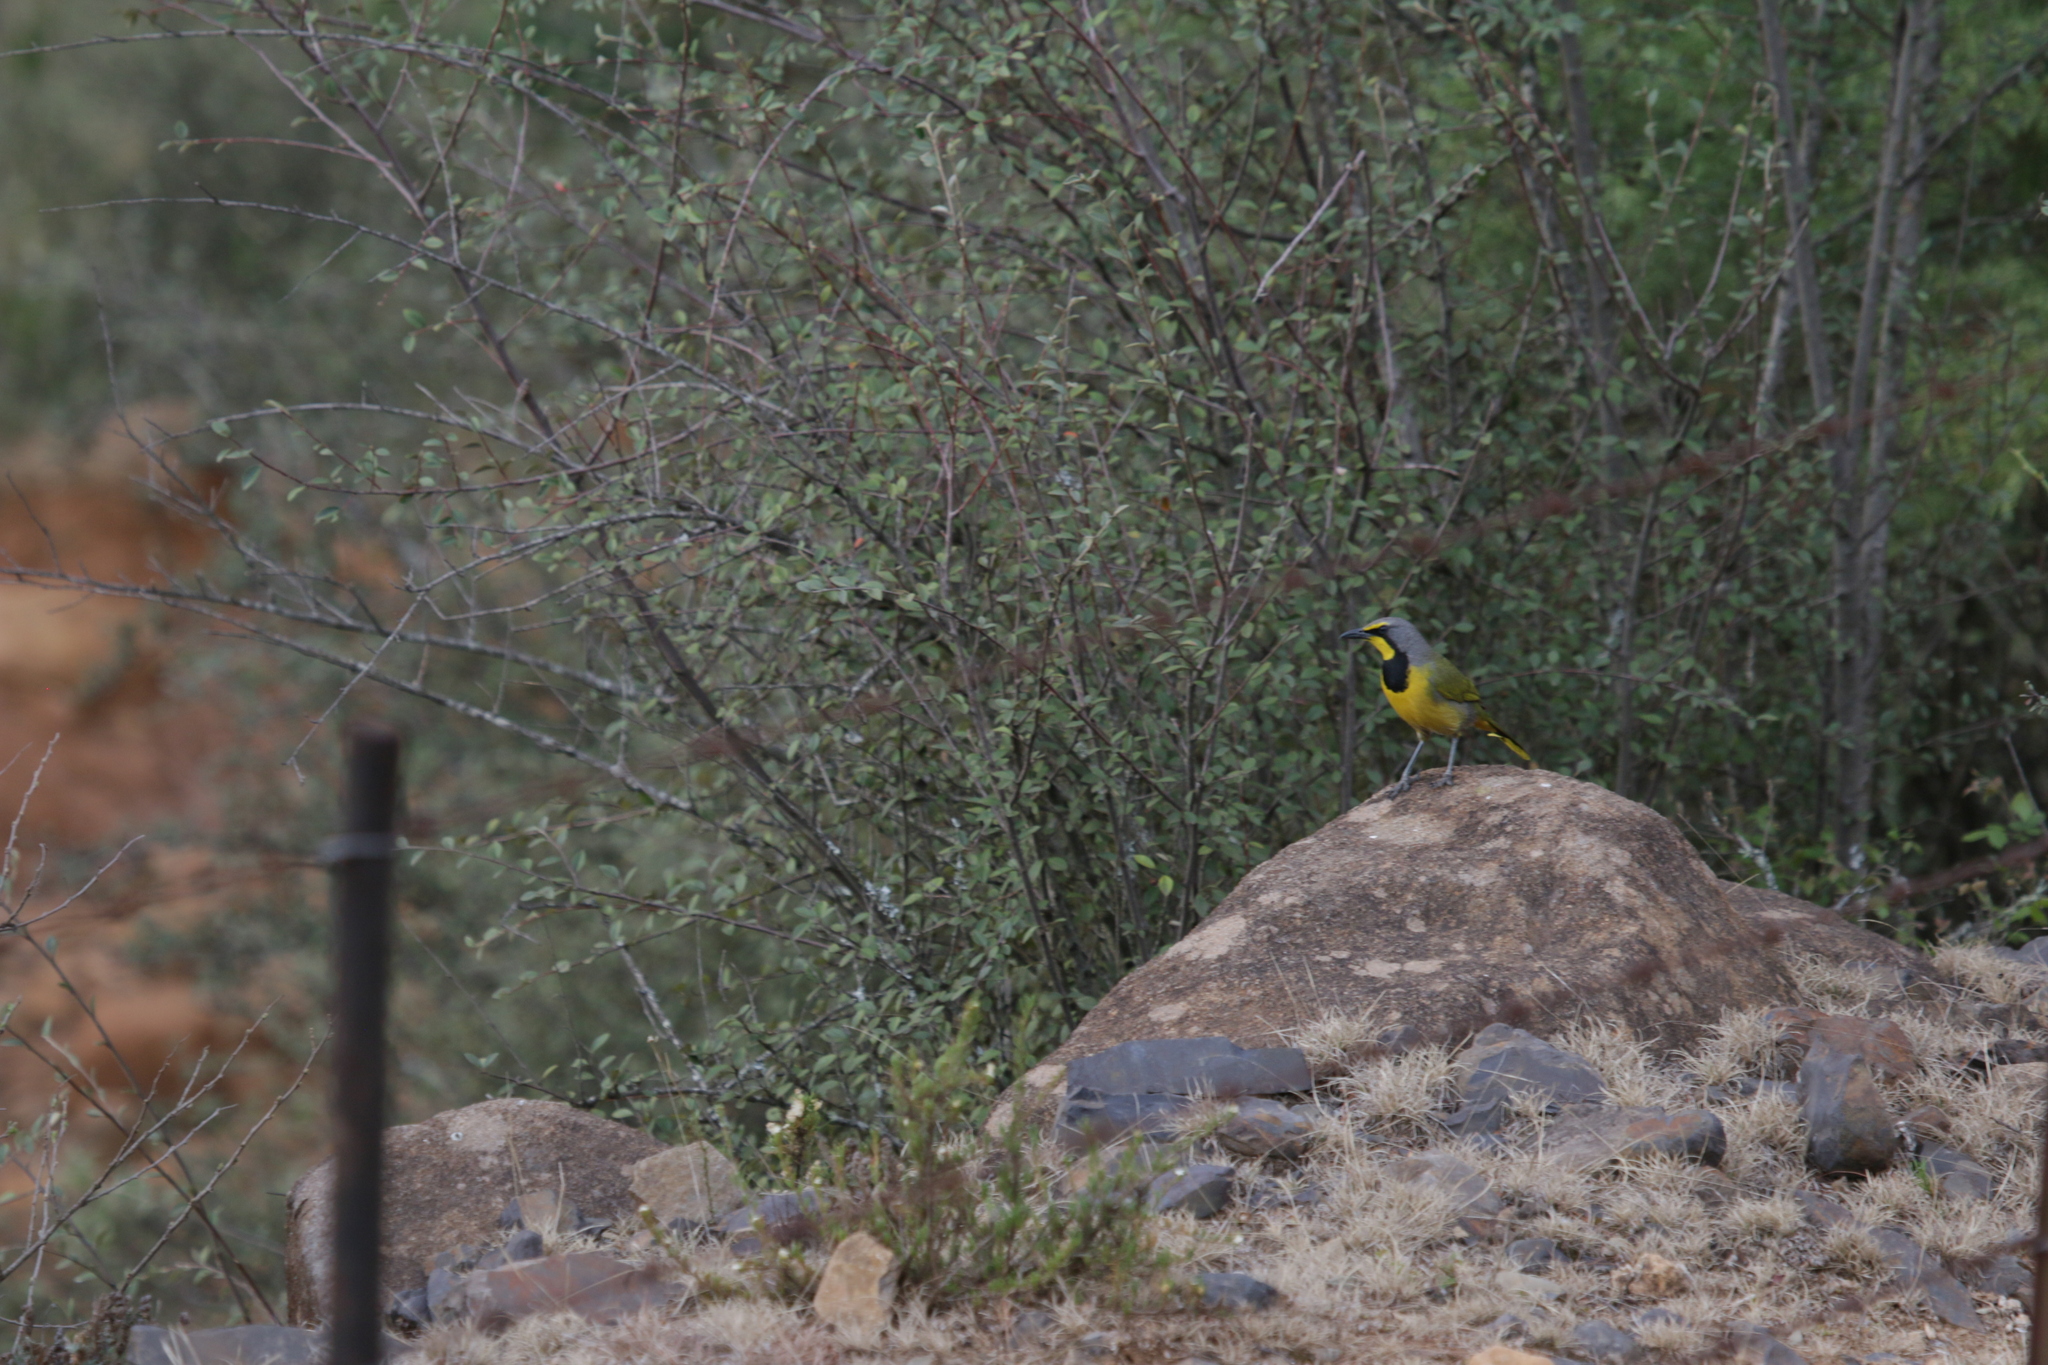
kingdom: Animalia
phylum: Chordata
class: Aves
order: Passeriformes
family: Malaconotidae
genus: Telophorus
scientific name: Telophorus zeylonus
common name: Bokmakierie
